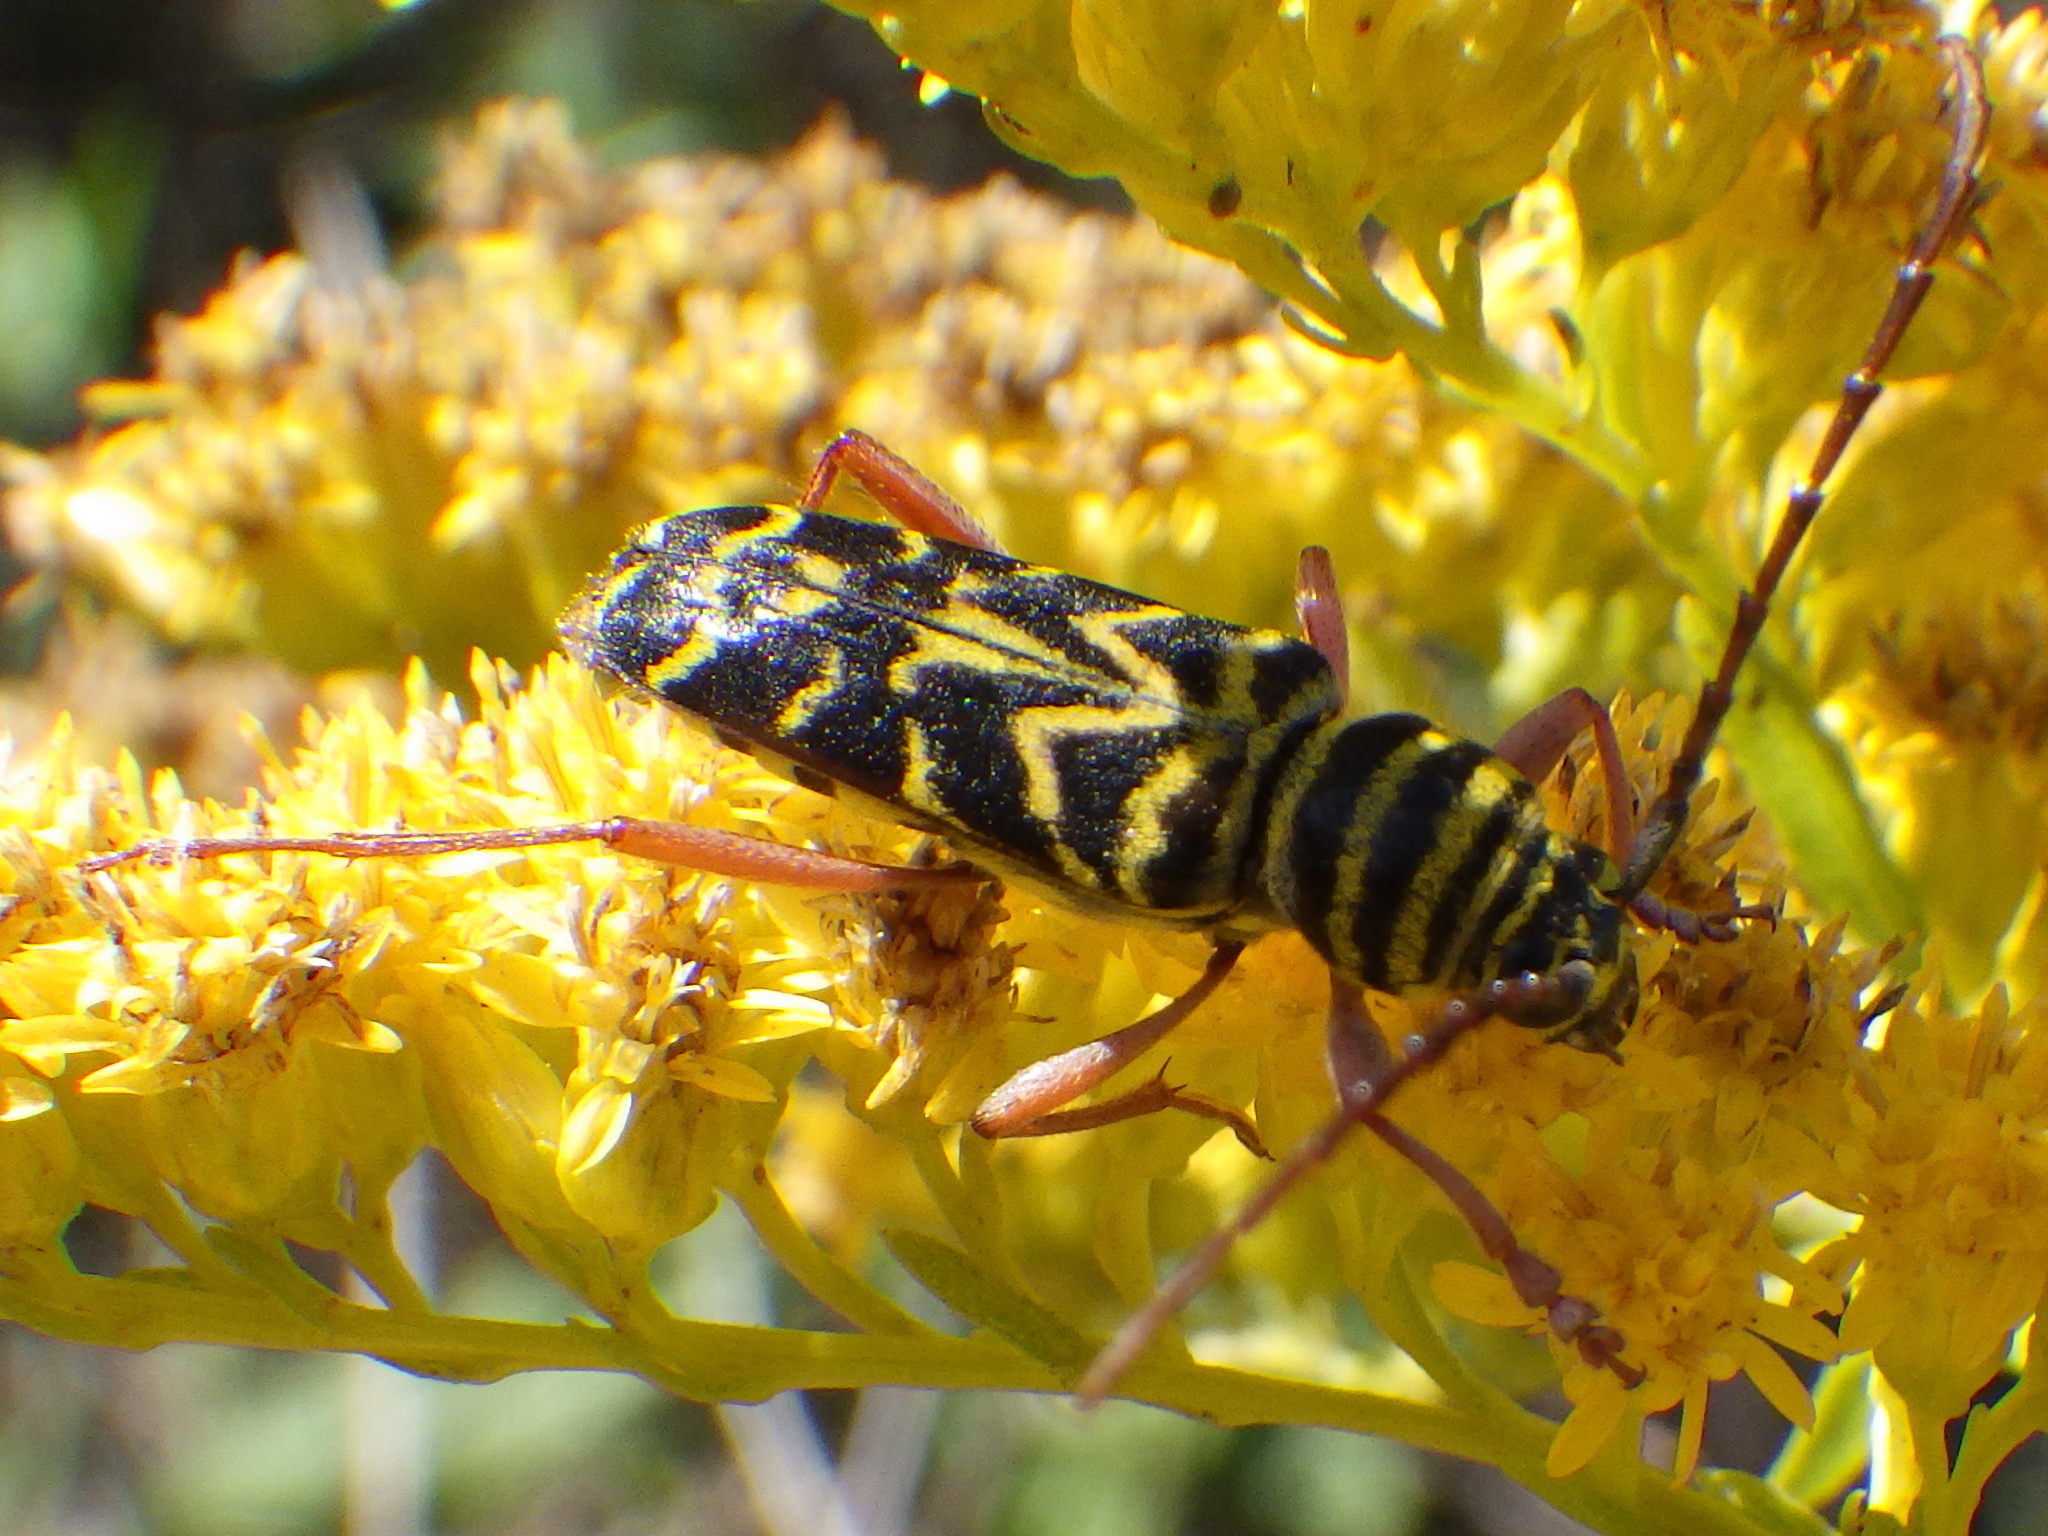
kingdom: Animalia
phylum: Arthropoda
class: Insecta
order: Coleoptera
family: Cerambycidae
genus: Megacyllene
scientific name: Megacyllene robiniae
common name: Locust borer
